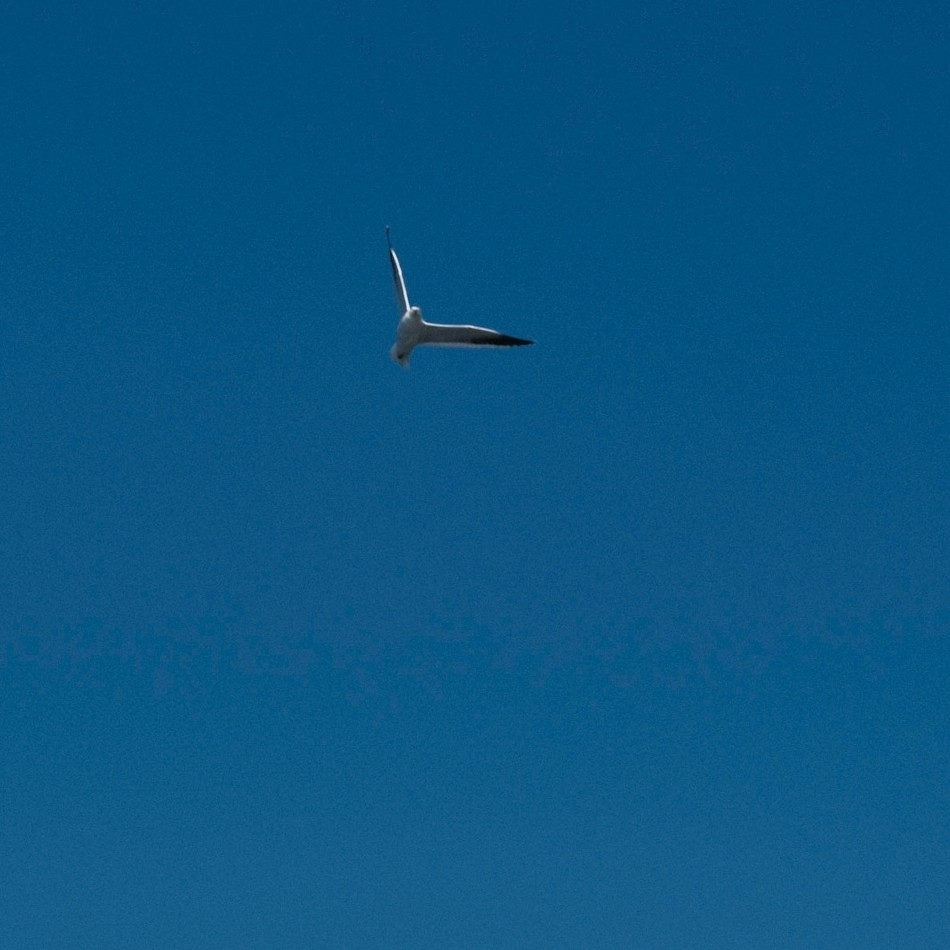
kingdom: Animalia
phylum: Chordata
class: Aves
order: Charadriiformes
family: Laridae
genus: Chroicocephalus
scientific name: Chroicocephalus novaehollandiae
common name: Silver gull
